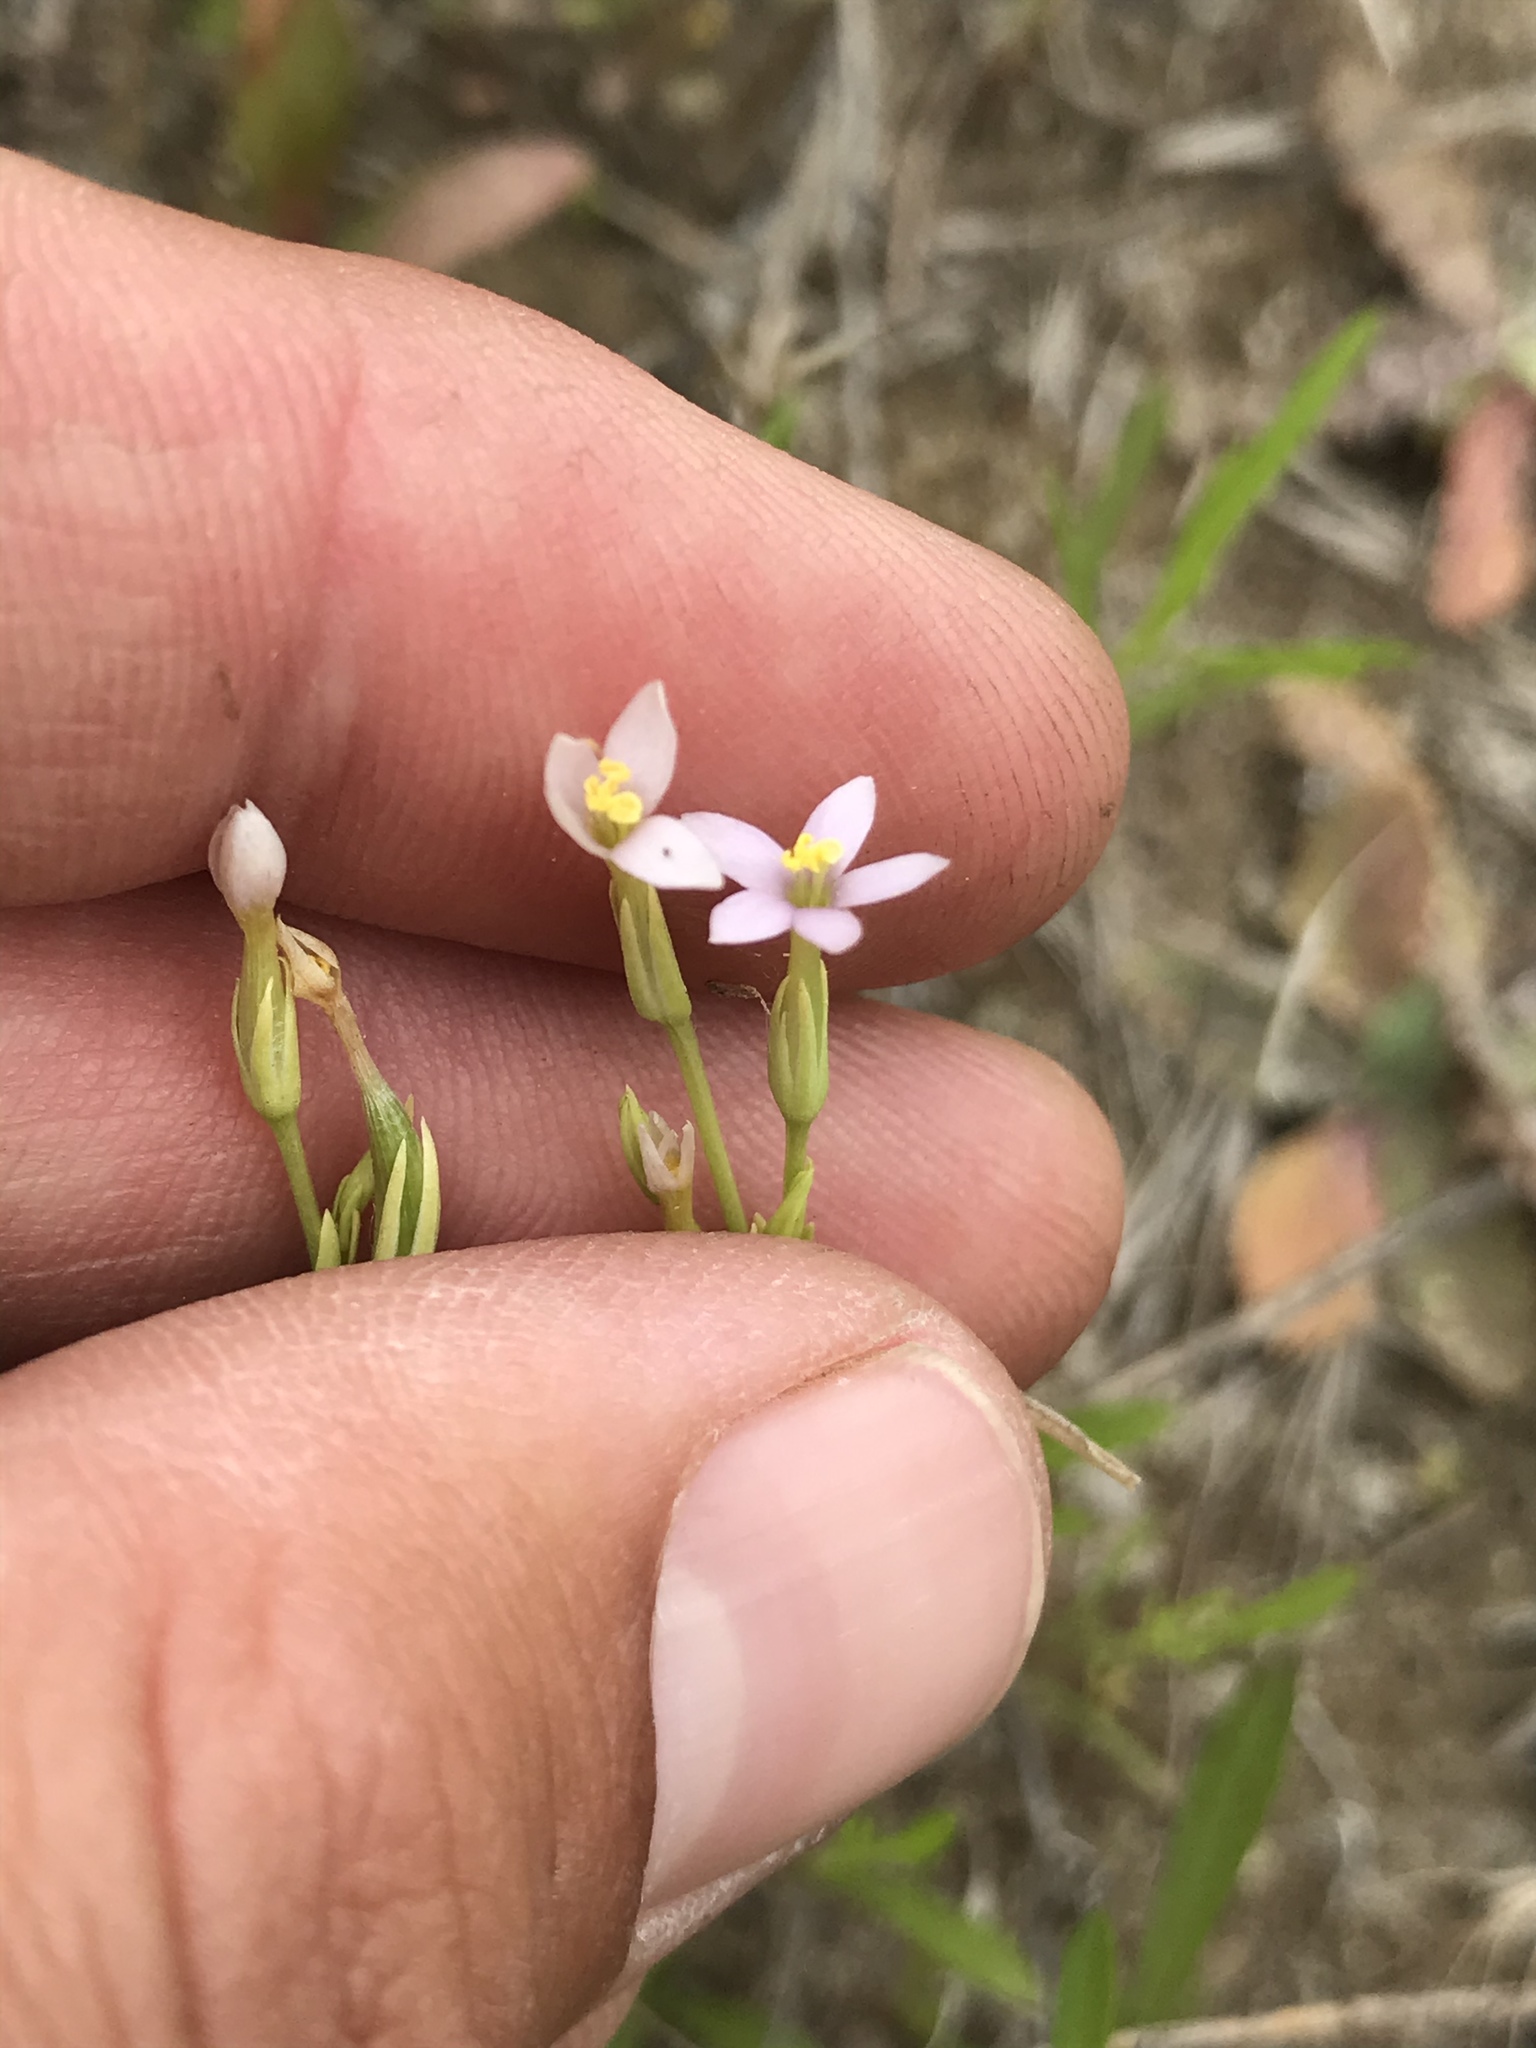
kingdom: Plantae
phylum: Tracheophyta
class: Magnoliopsida
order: Gentianales
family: Gentianaceae
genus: Zeltnera
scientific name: Zeltnera exaltata
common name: Great basin centaury
